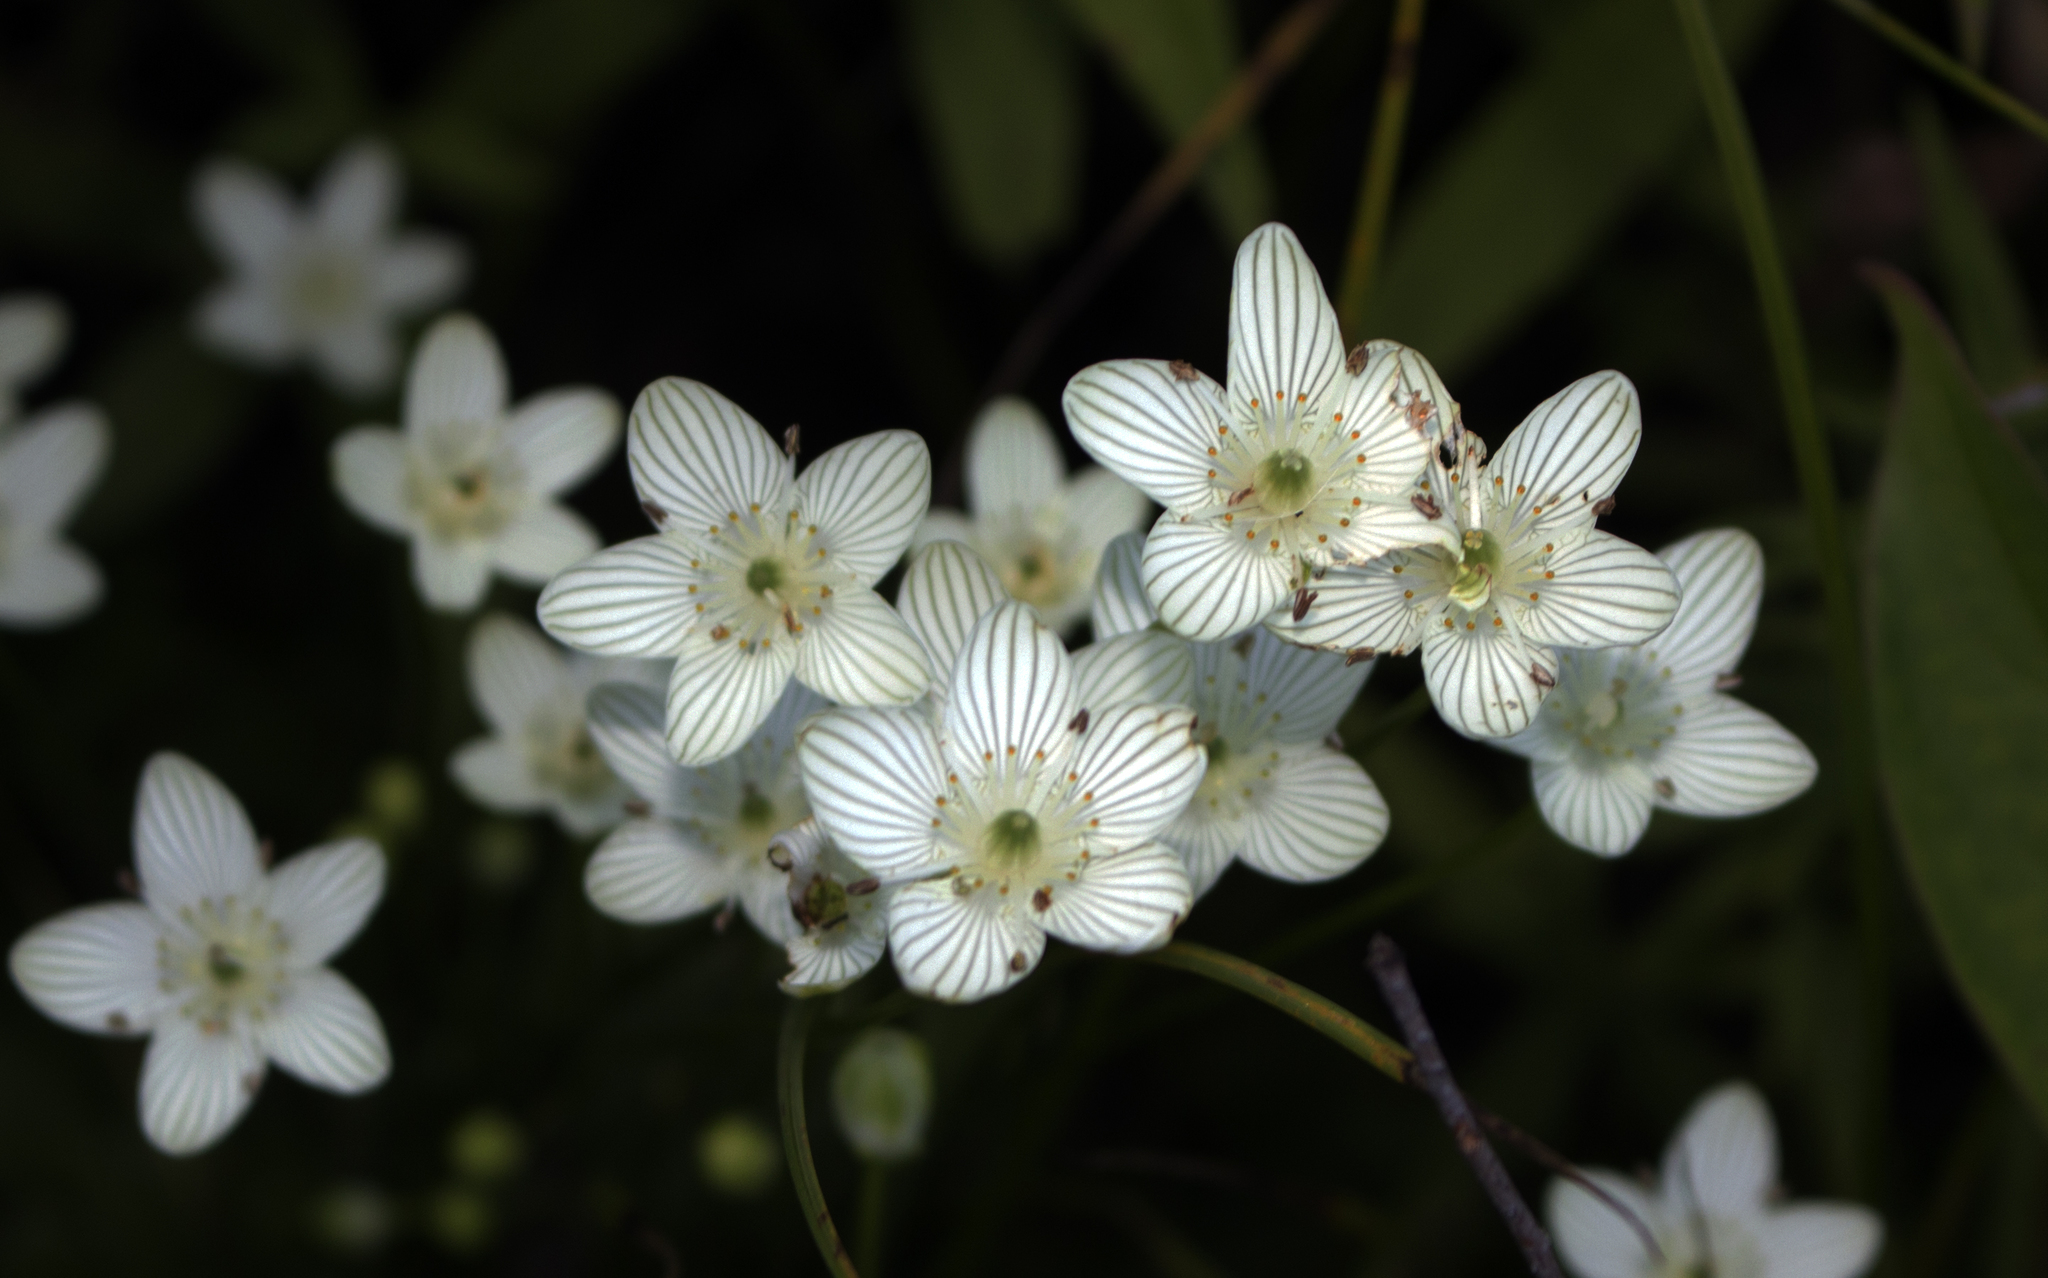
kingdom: Plantae
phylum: Tracheophyta
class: Magnoliopsida
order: Celastrales
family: Parnassiaceae
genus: Parnassia
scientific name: Parnassia glauca
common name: American grass-of-parnassus
